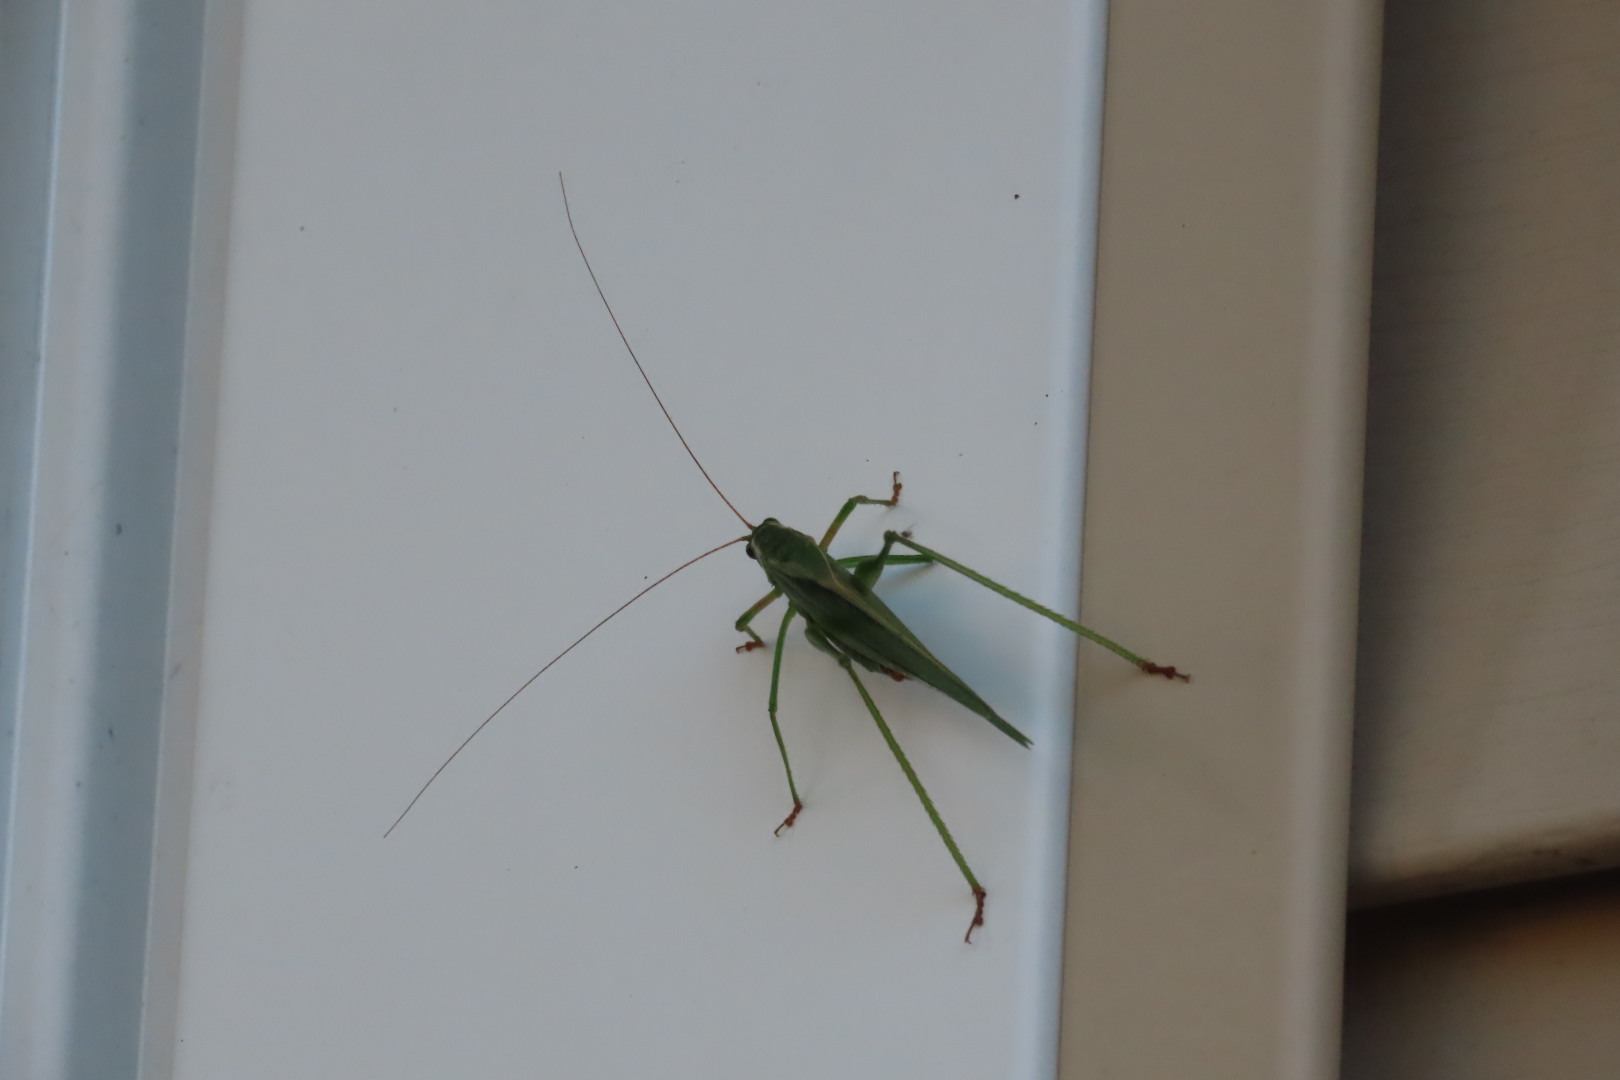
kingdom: Animalia
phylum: Arthropoda
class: Insecta
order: Orthoptera
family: Tettigoniidae
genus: Scudderia
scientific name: Scudderia fasciata
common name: Treetop bush katydid
